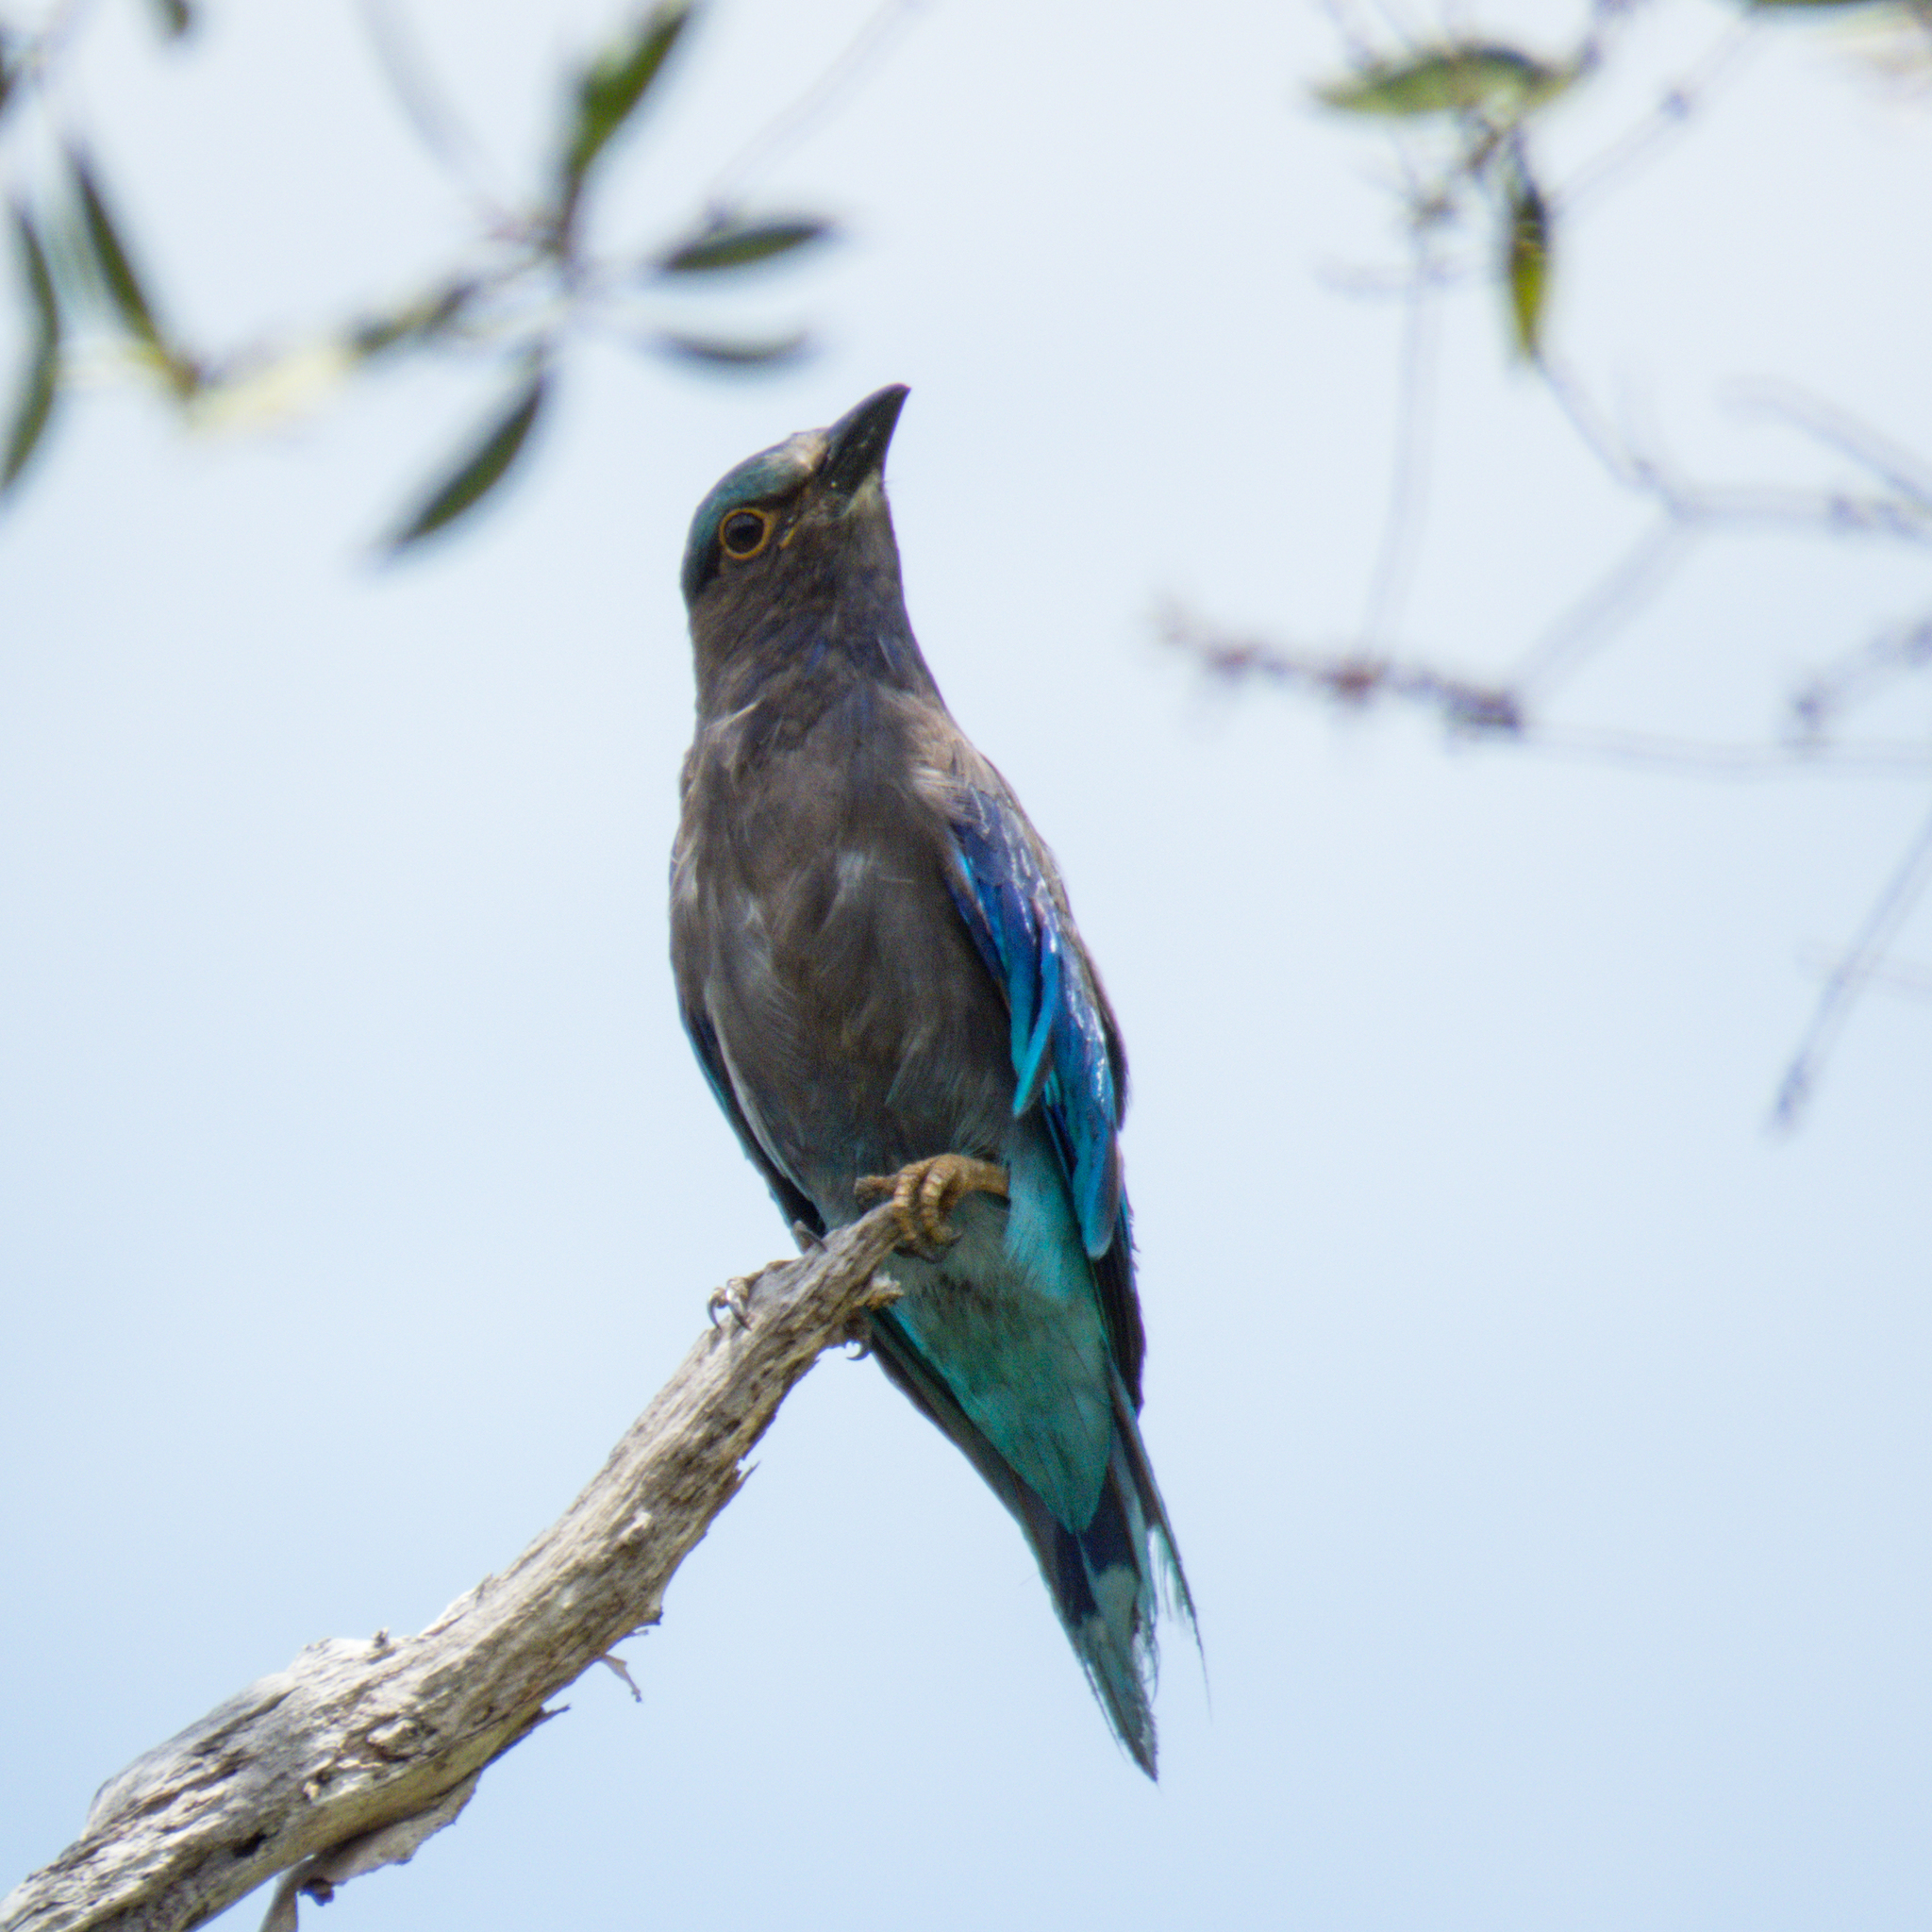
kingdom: Animalia
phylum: Chordata
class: Aves
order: Coraciiformes
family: Coraciidae
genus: Coracias
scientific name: Coracias affinis
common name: Indochinese roller
